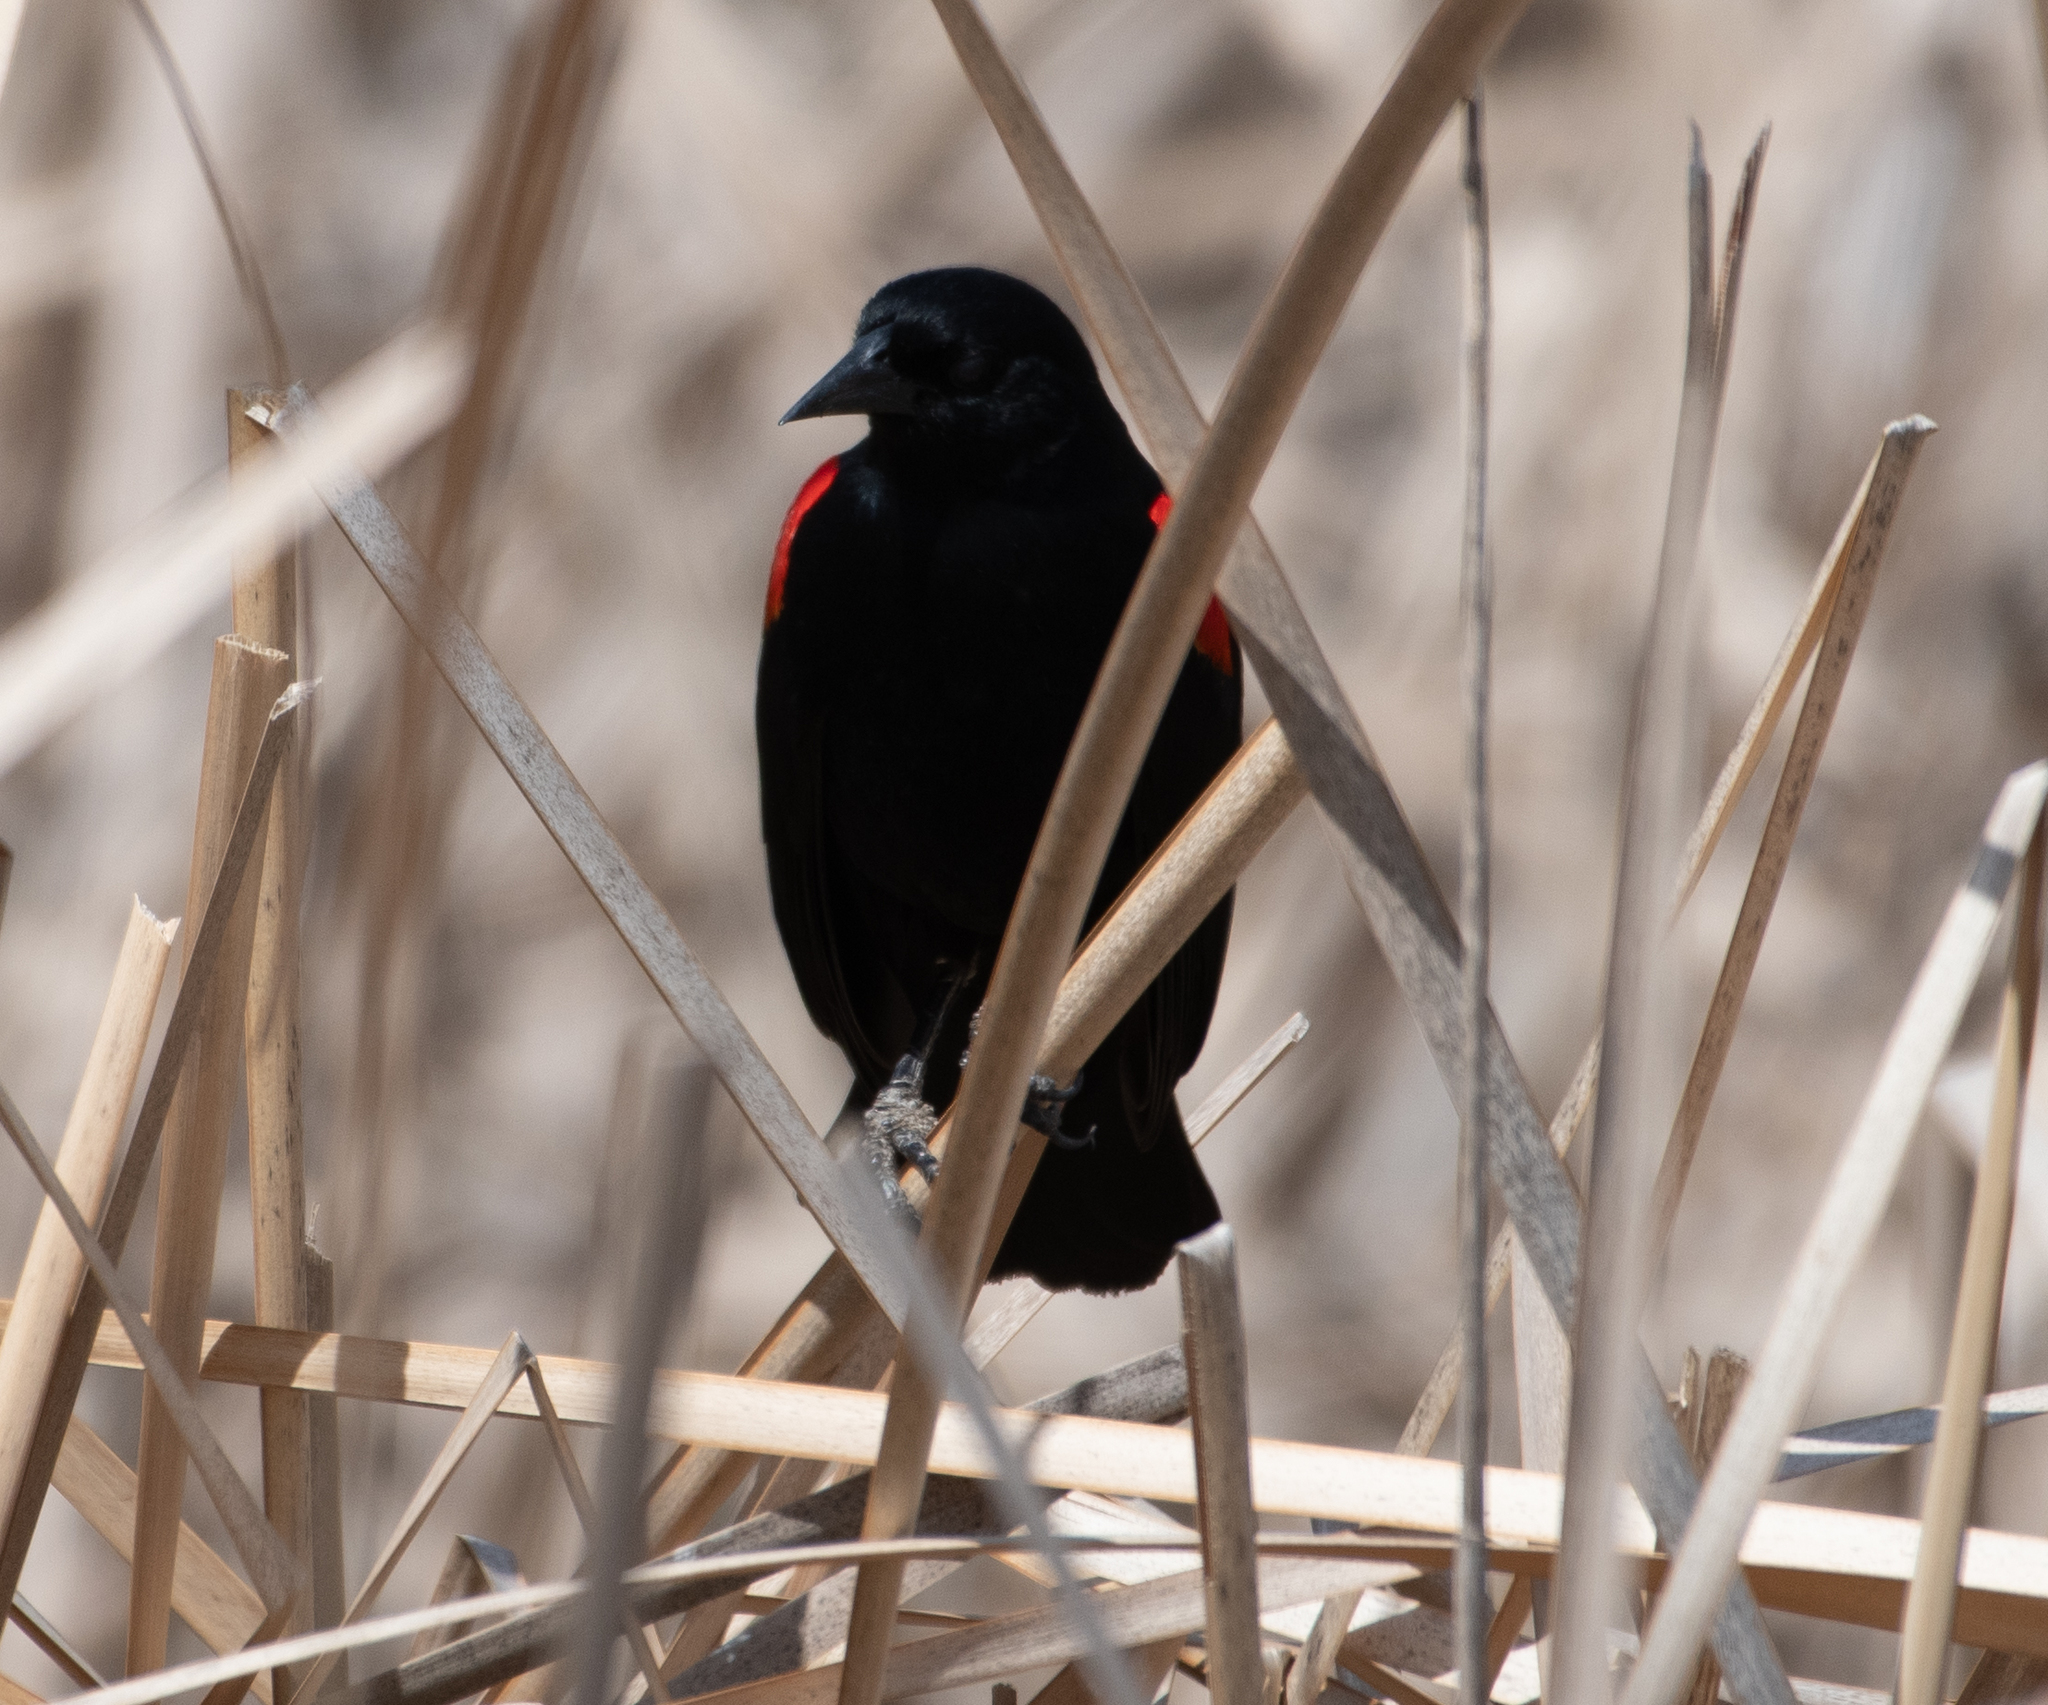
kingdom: Animalia
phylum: Chordata
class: Aves
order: Passeriformes
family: Icteridae
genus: Agelaius
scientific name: Agelaius phoeniceus
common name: Red-winged blackbird
